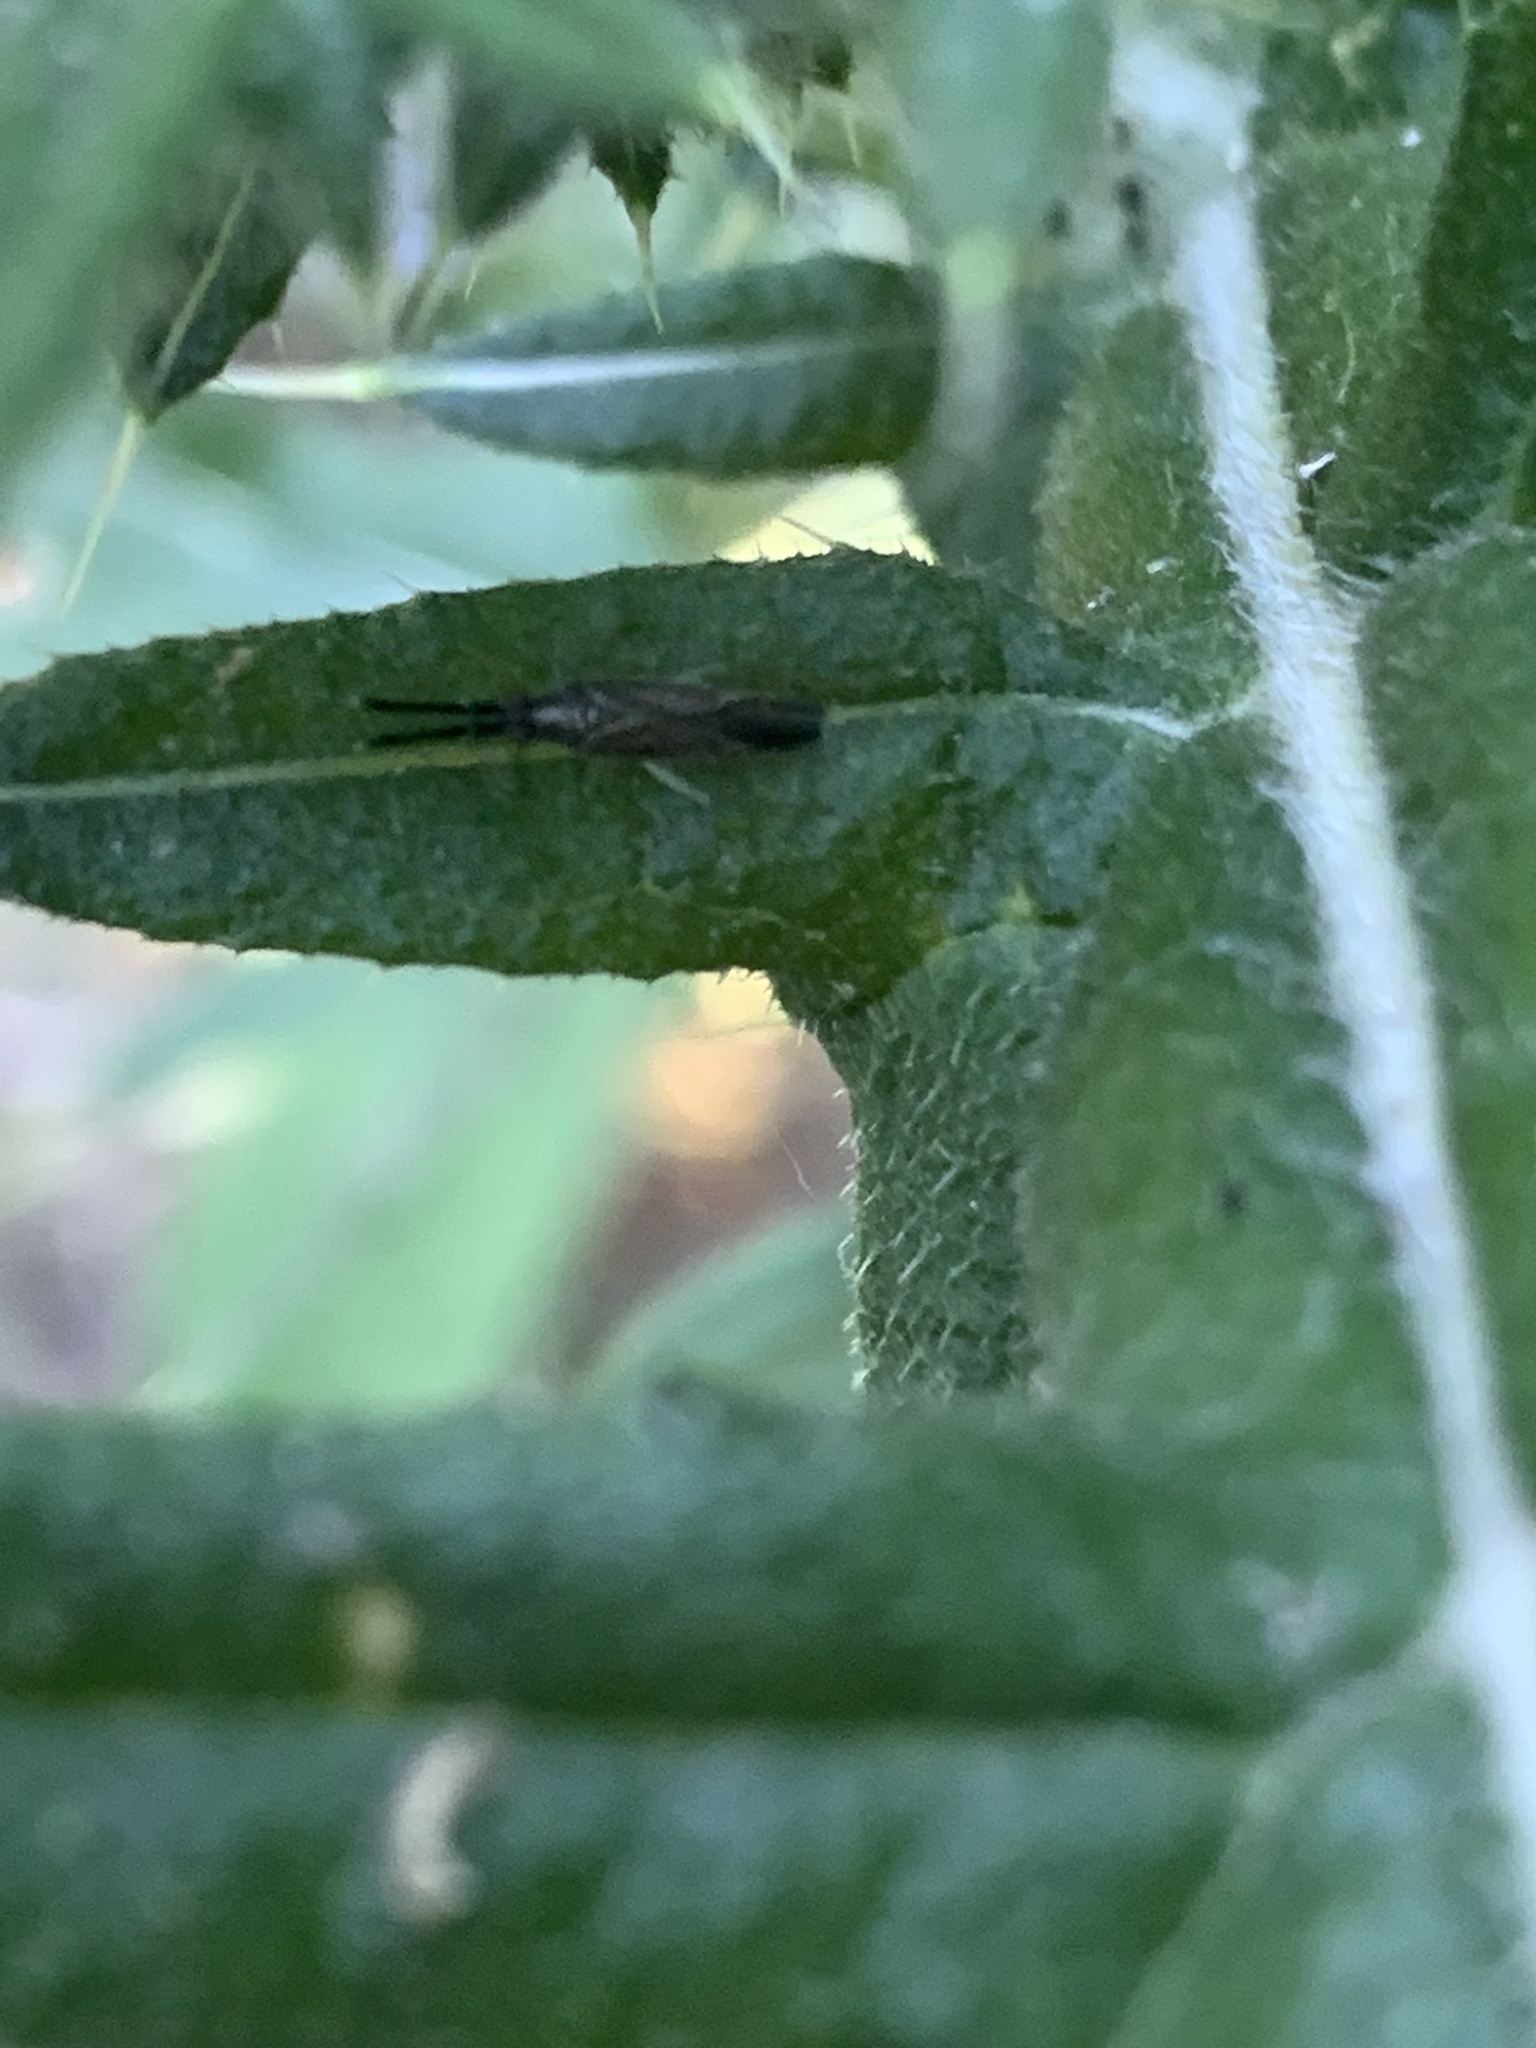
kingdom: Animalia
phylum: Arthropoda
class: Insecta
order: Hemiptera
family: Miridae
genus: Heterotoma
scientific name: Heterotoma planicornis
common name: Plant bug
